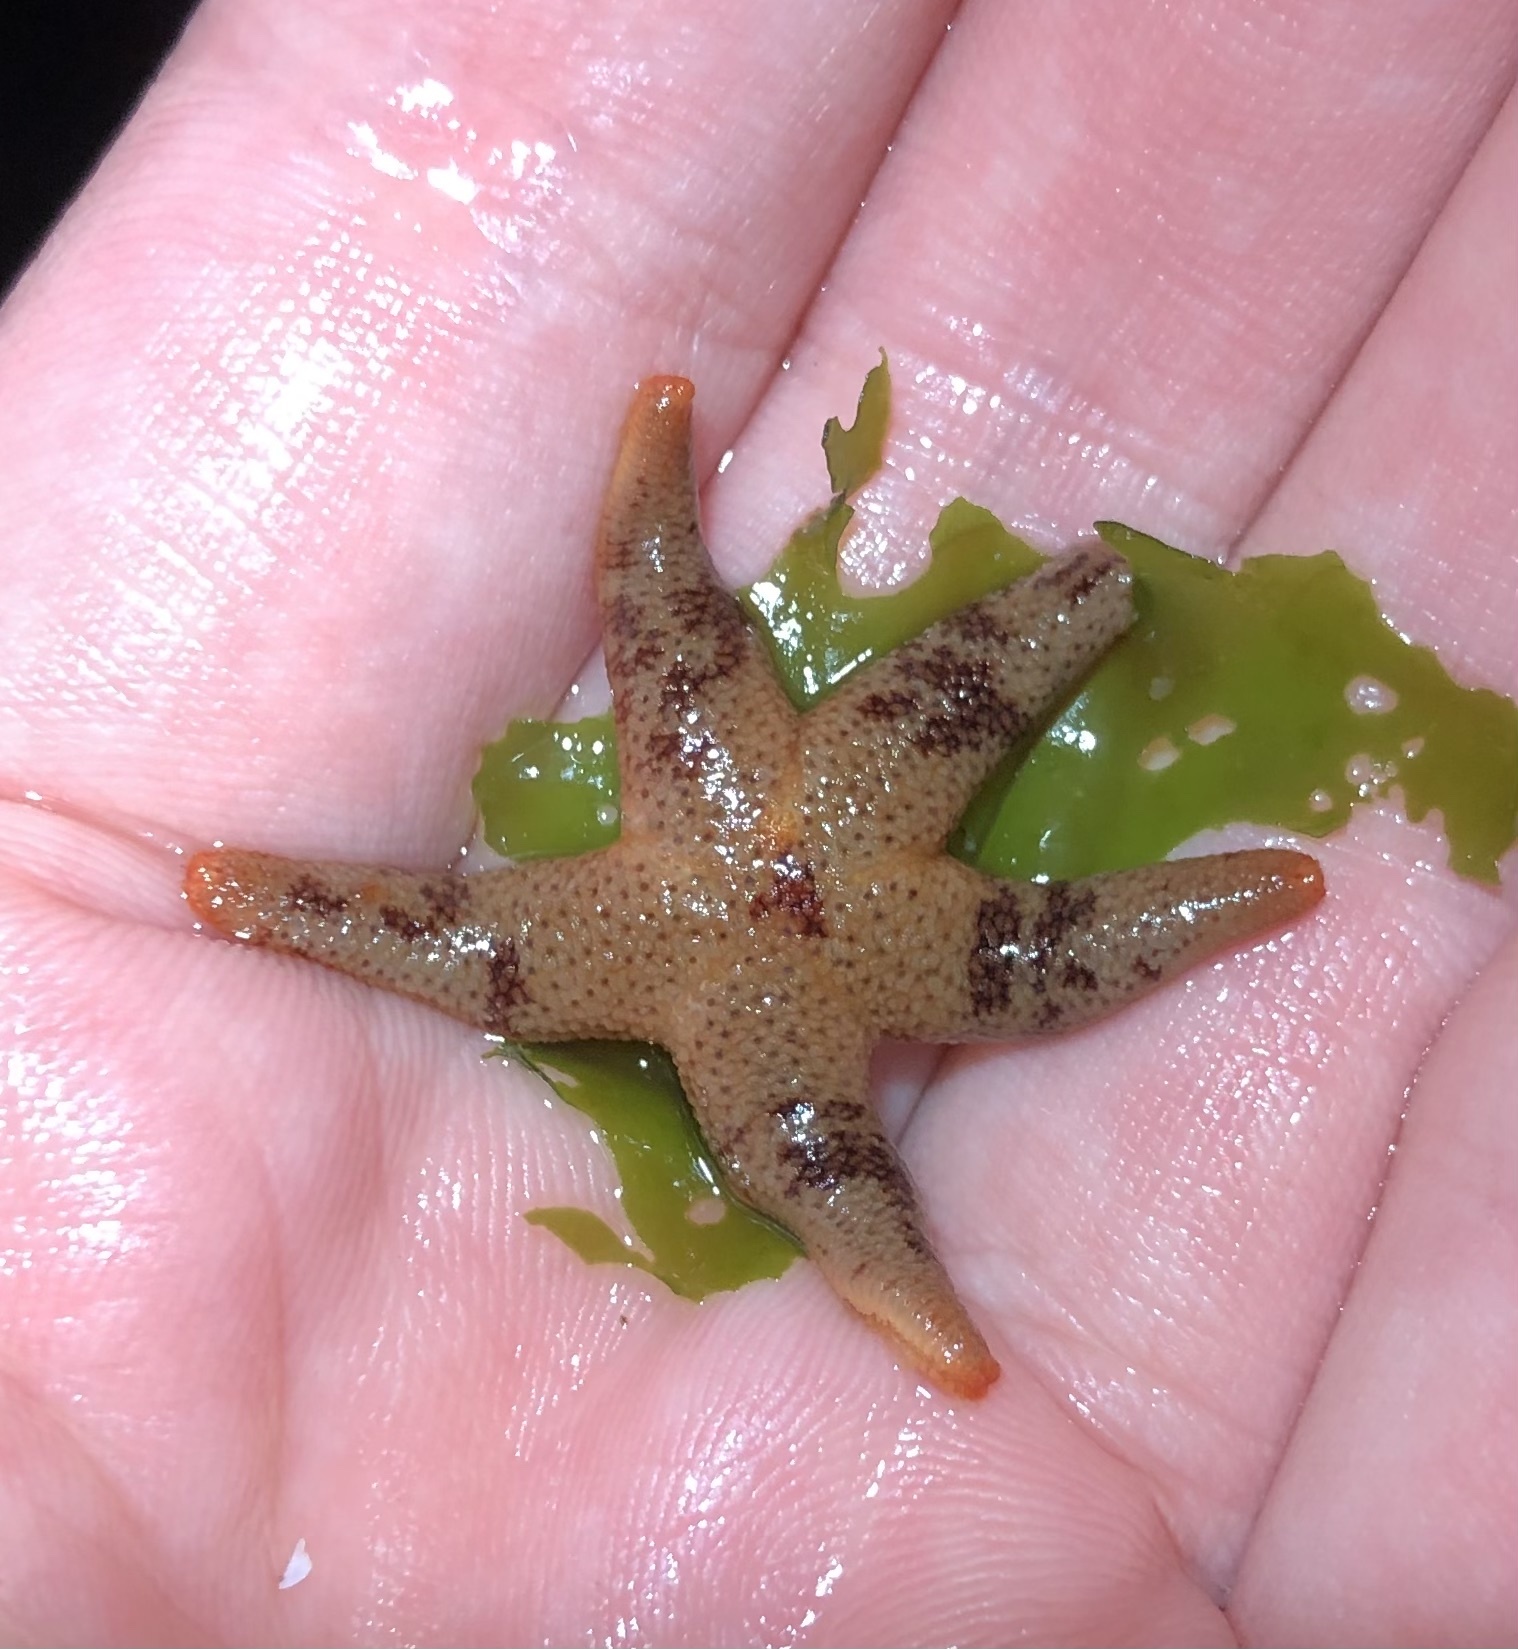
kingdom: Animalia
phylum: Echinodermata
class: Asteroidea
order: Spinulosida
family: Echinasteridae
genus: Henricia
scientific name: Henricia pumila
